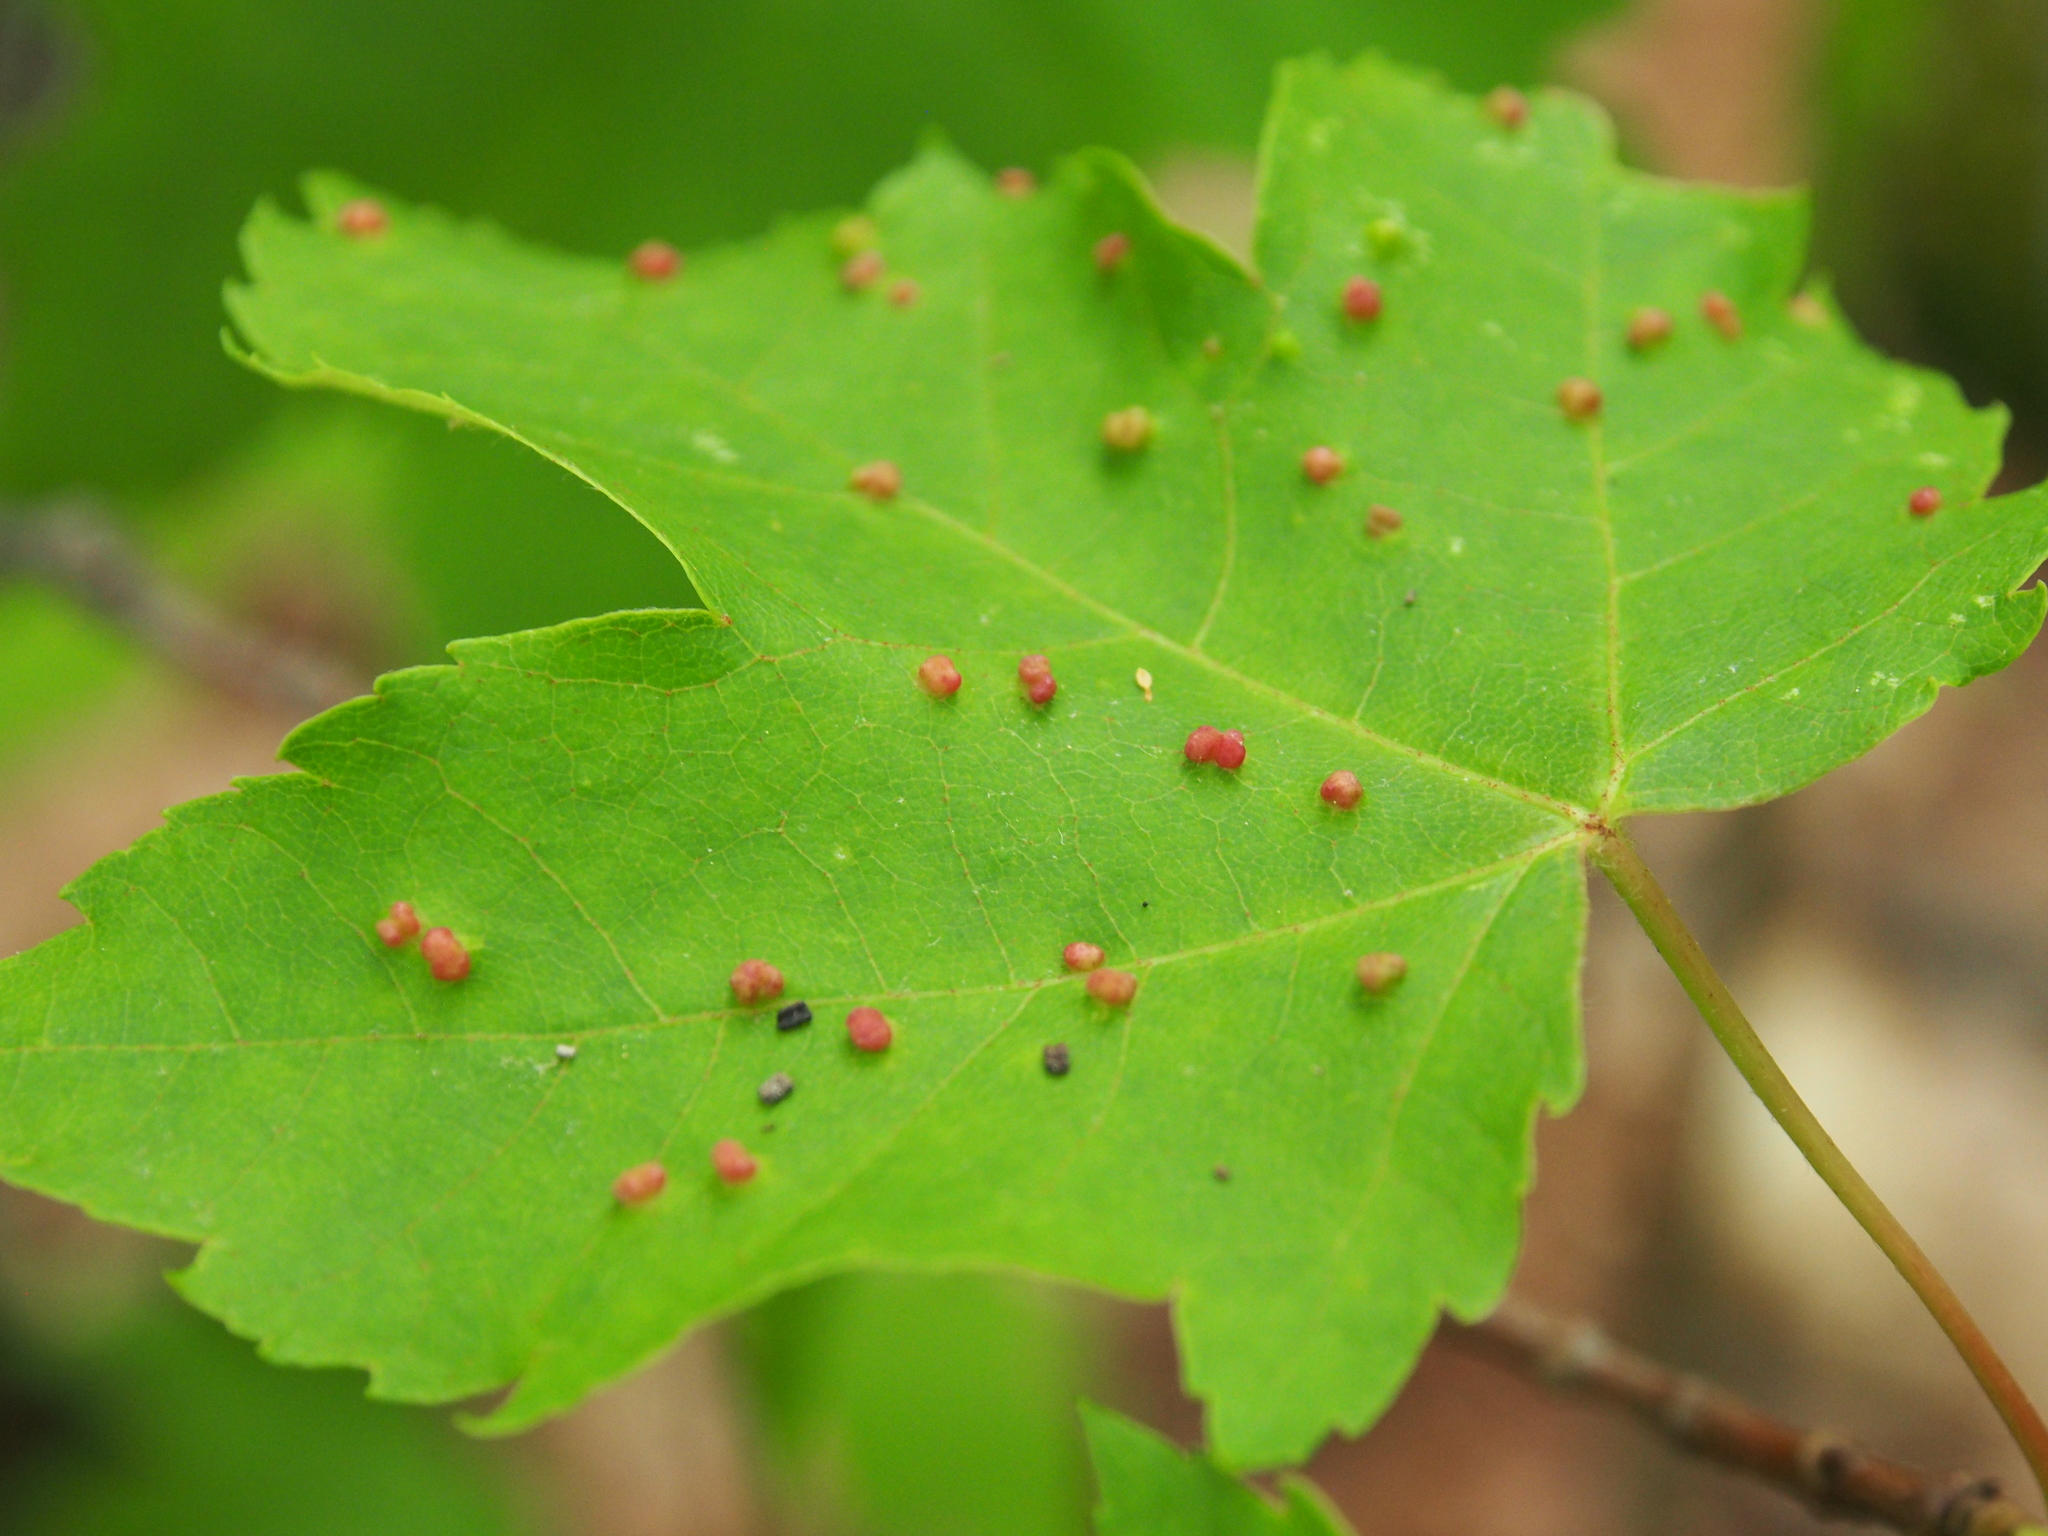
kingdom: Animalia
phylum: Arthropoda
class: Arachnida
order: Trombidiformes
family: Eriophyidae
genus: Vasates
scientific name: Vasates quadripedes
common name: Maple bladder gall mite
